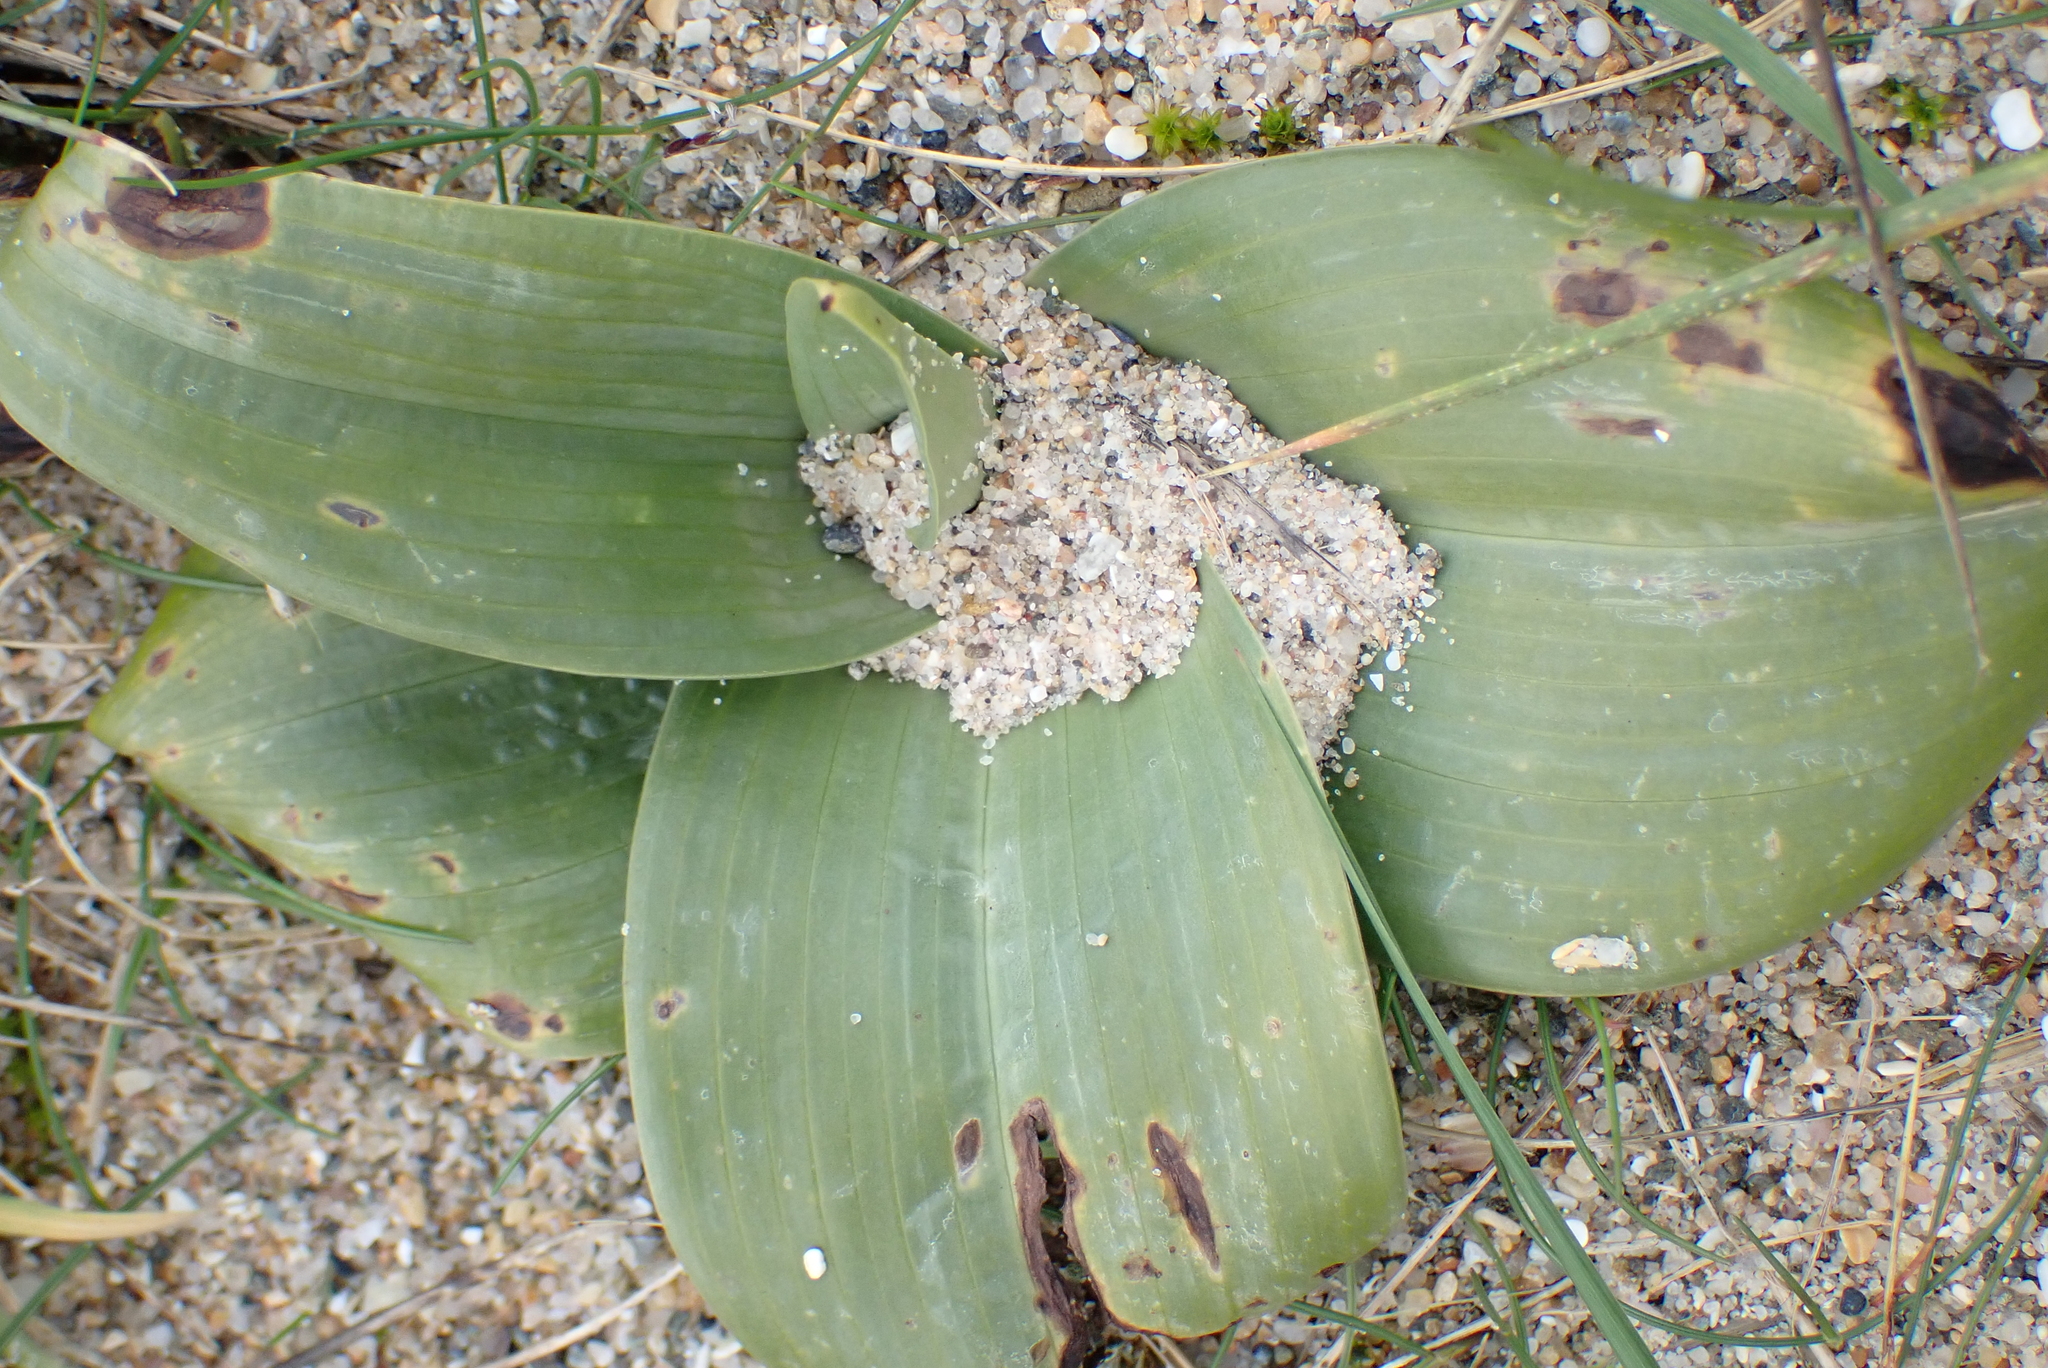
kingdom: Plantae
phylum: Tracheophyta
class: Liliopsida
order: Asparagales
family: Orchidaceae
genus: Himantoglossum
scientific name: Himantoglossum hircinum
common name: Lizard orchid
